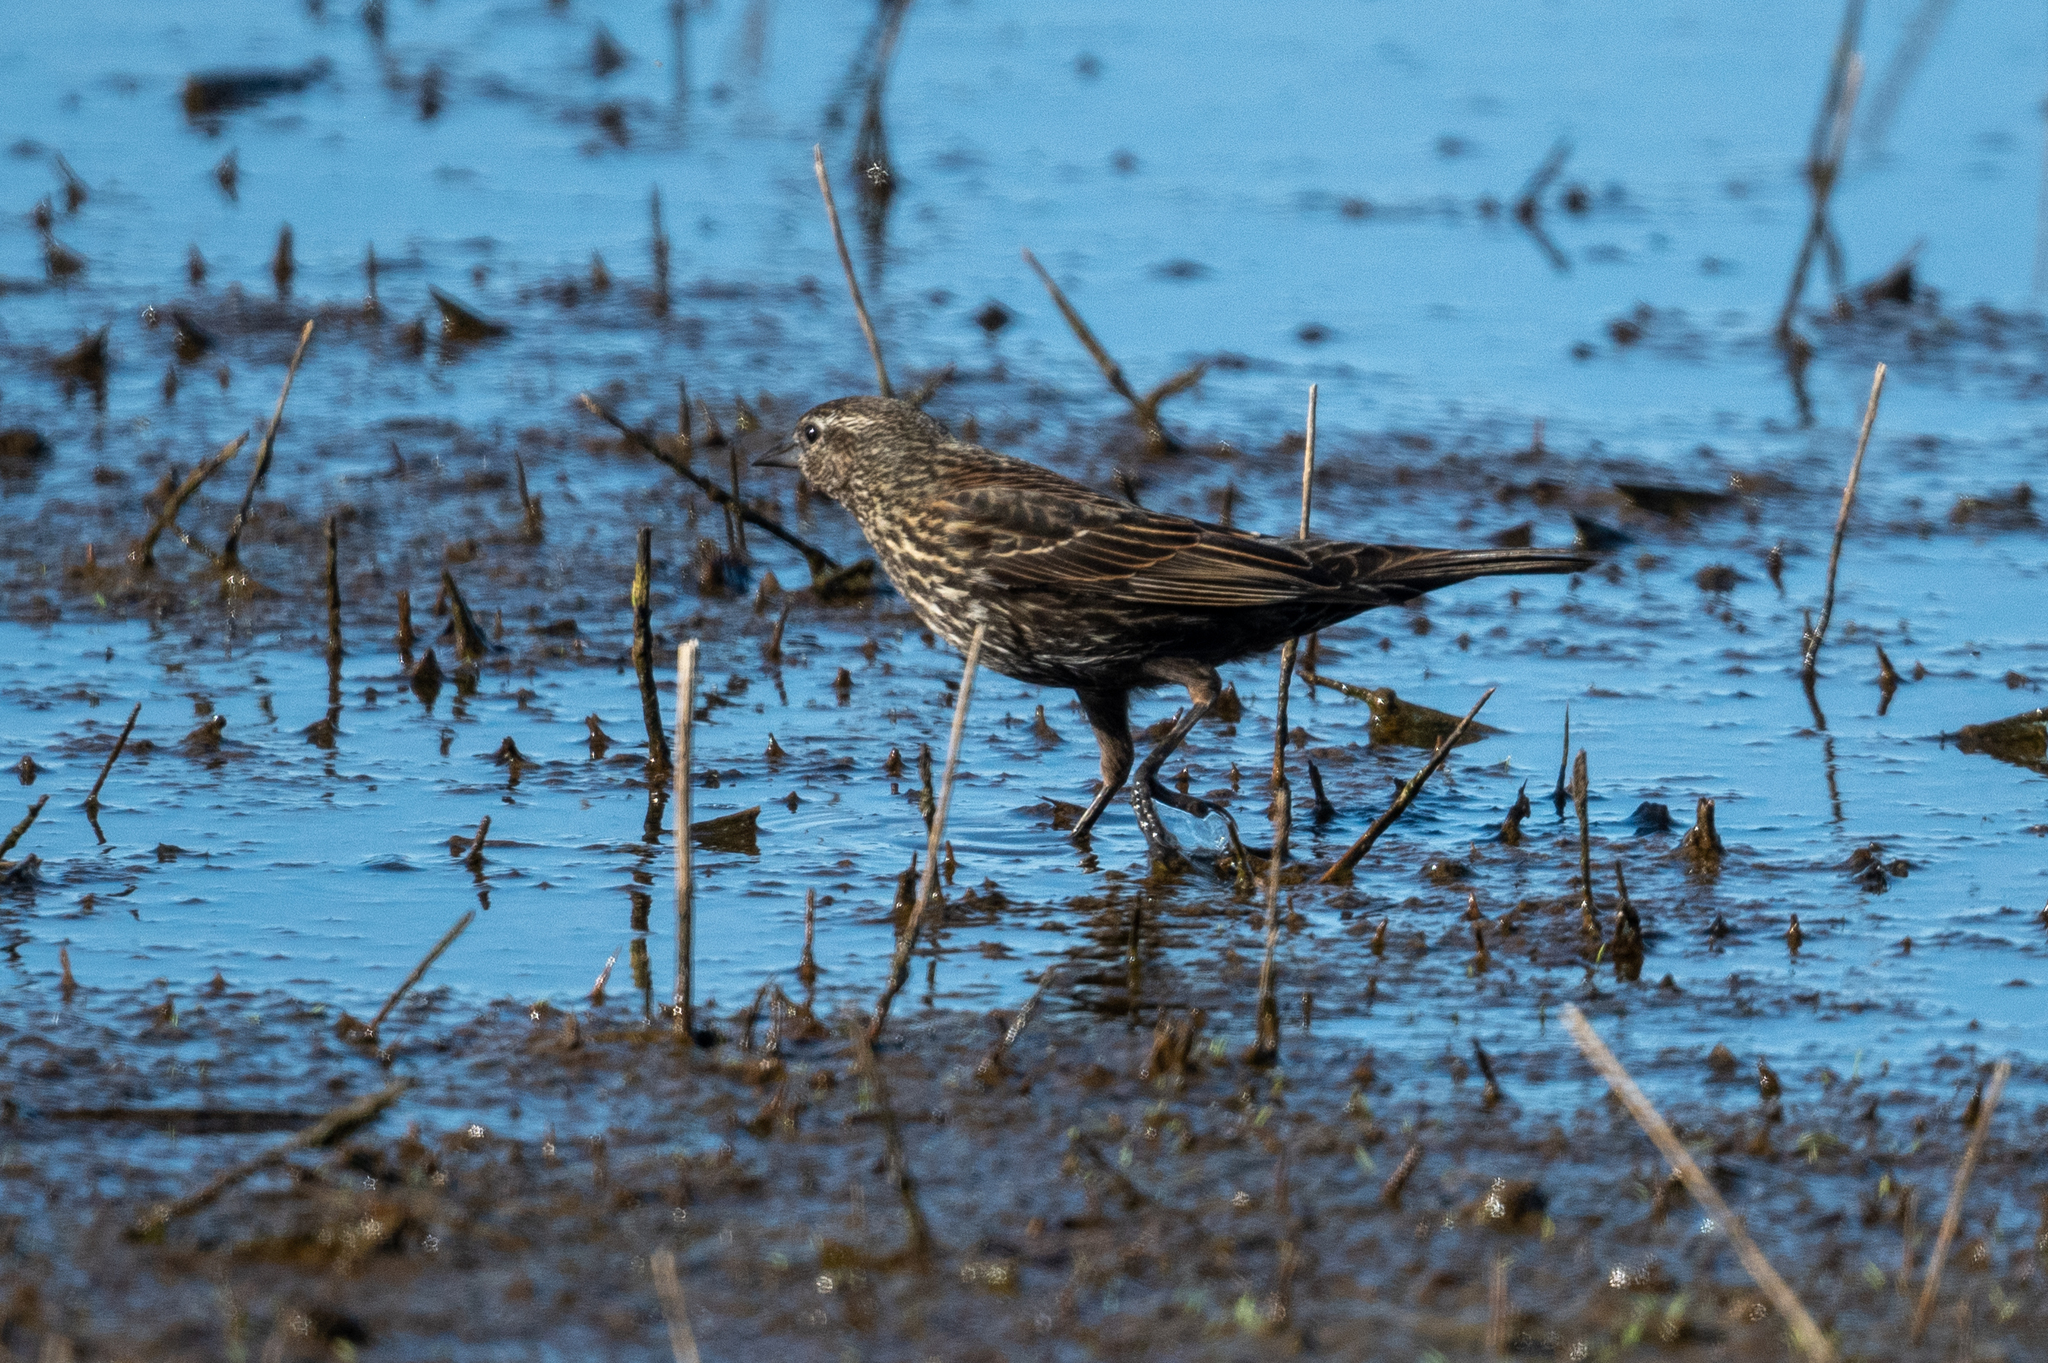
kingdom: Animalia
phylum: Chordata
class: Aves
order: Passeriformes
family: Icteridae
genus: Agelaius
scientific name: Agelaius phoeniceus
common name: Red-winged blackbird
